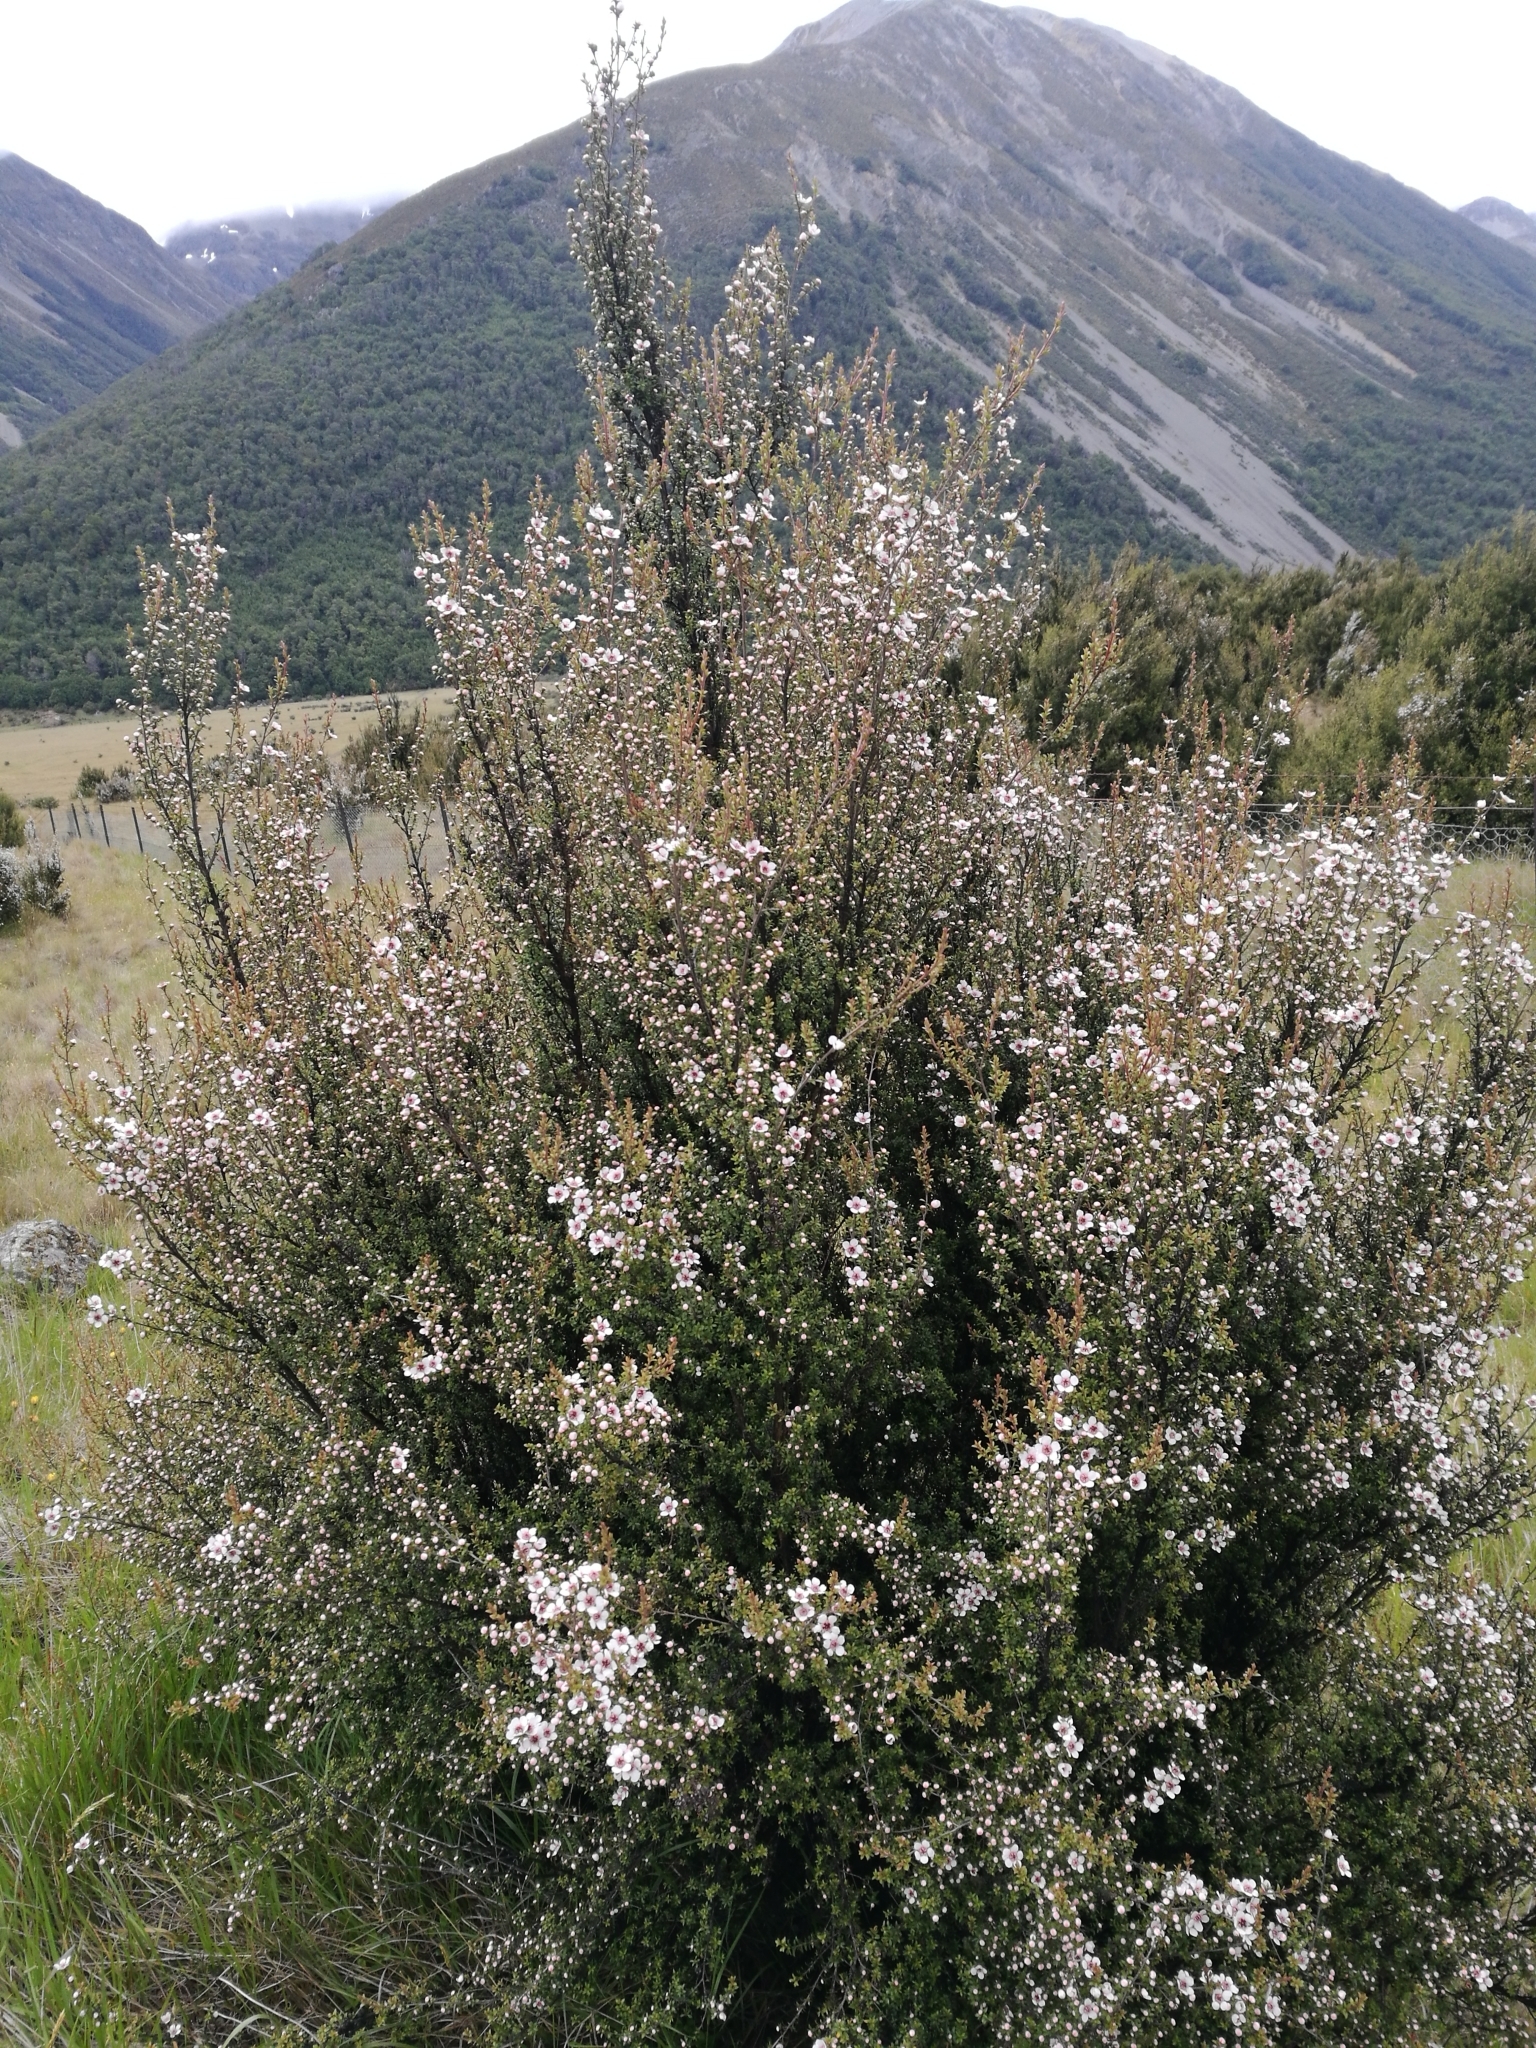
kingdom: Plantae
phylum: Tracheophyta
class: Magnoliopsida
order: Myrtales
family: Myrtaceae
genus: Leptospermum
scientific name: Leptospermum scoparium
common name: Broom tea-tree
